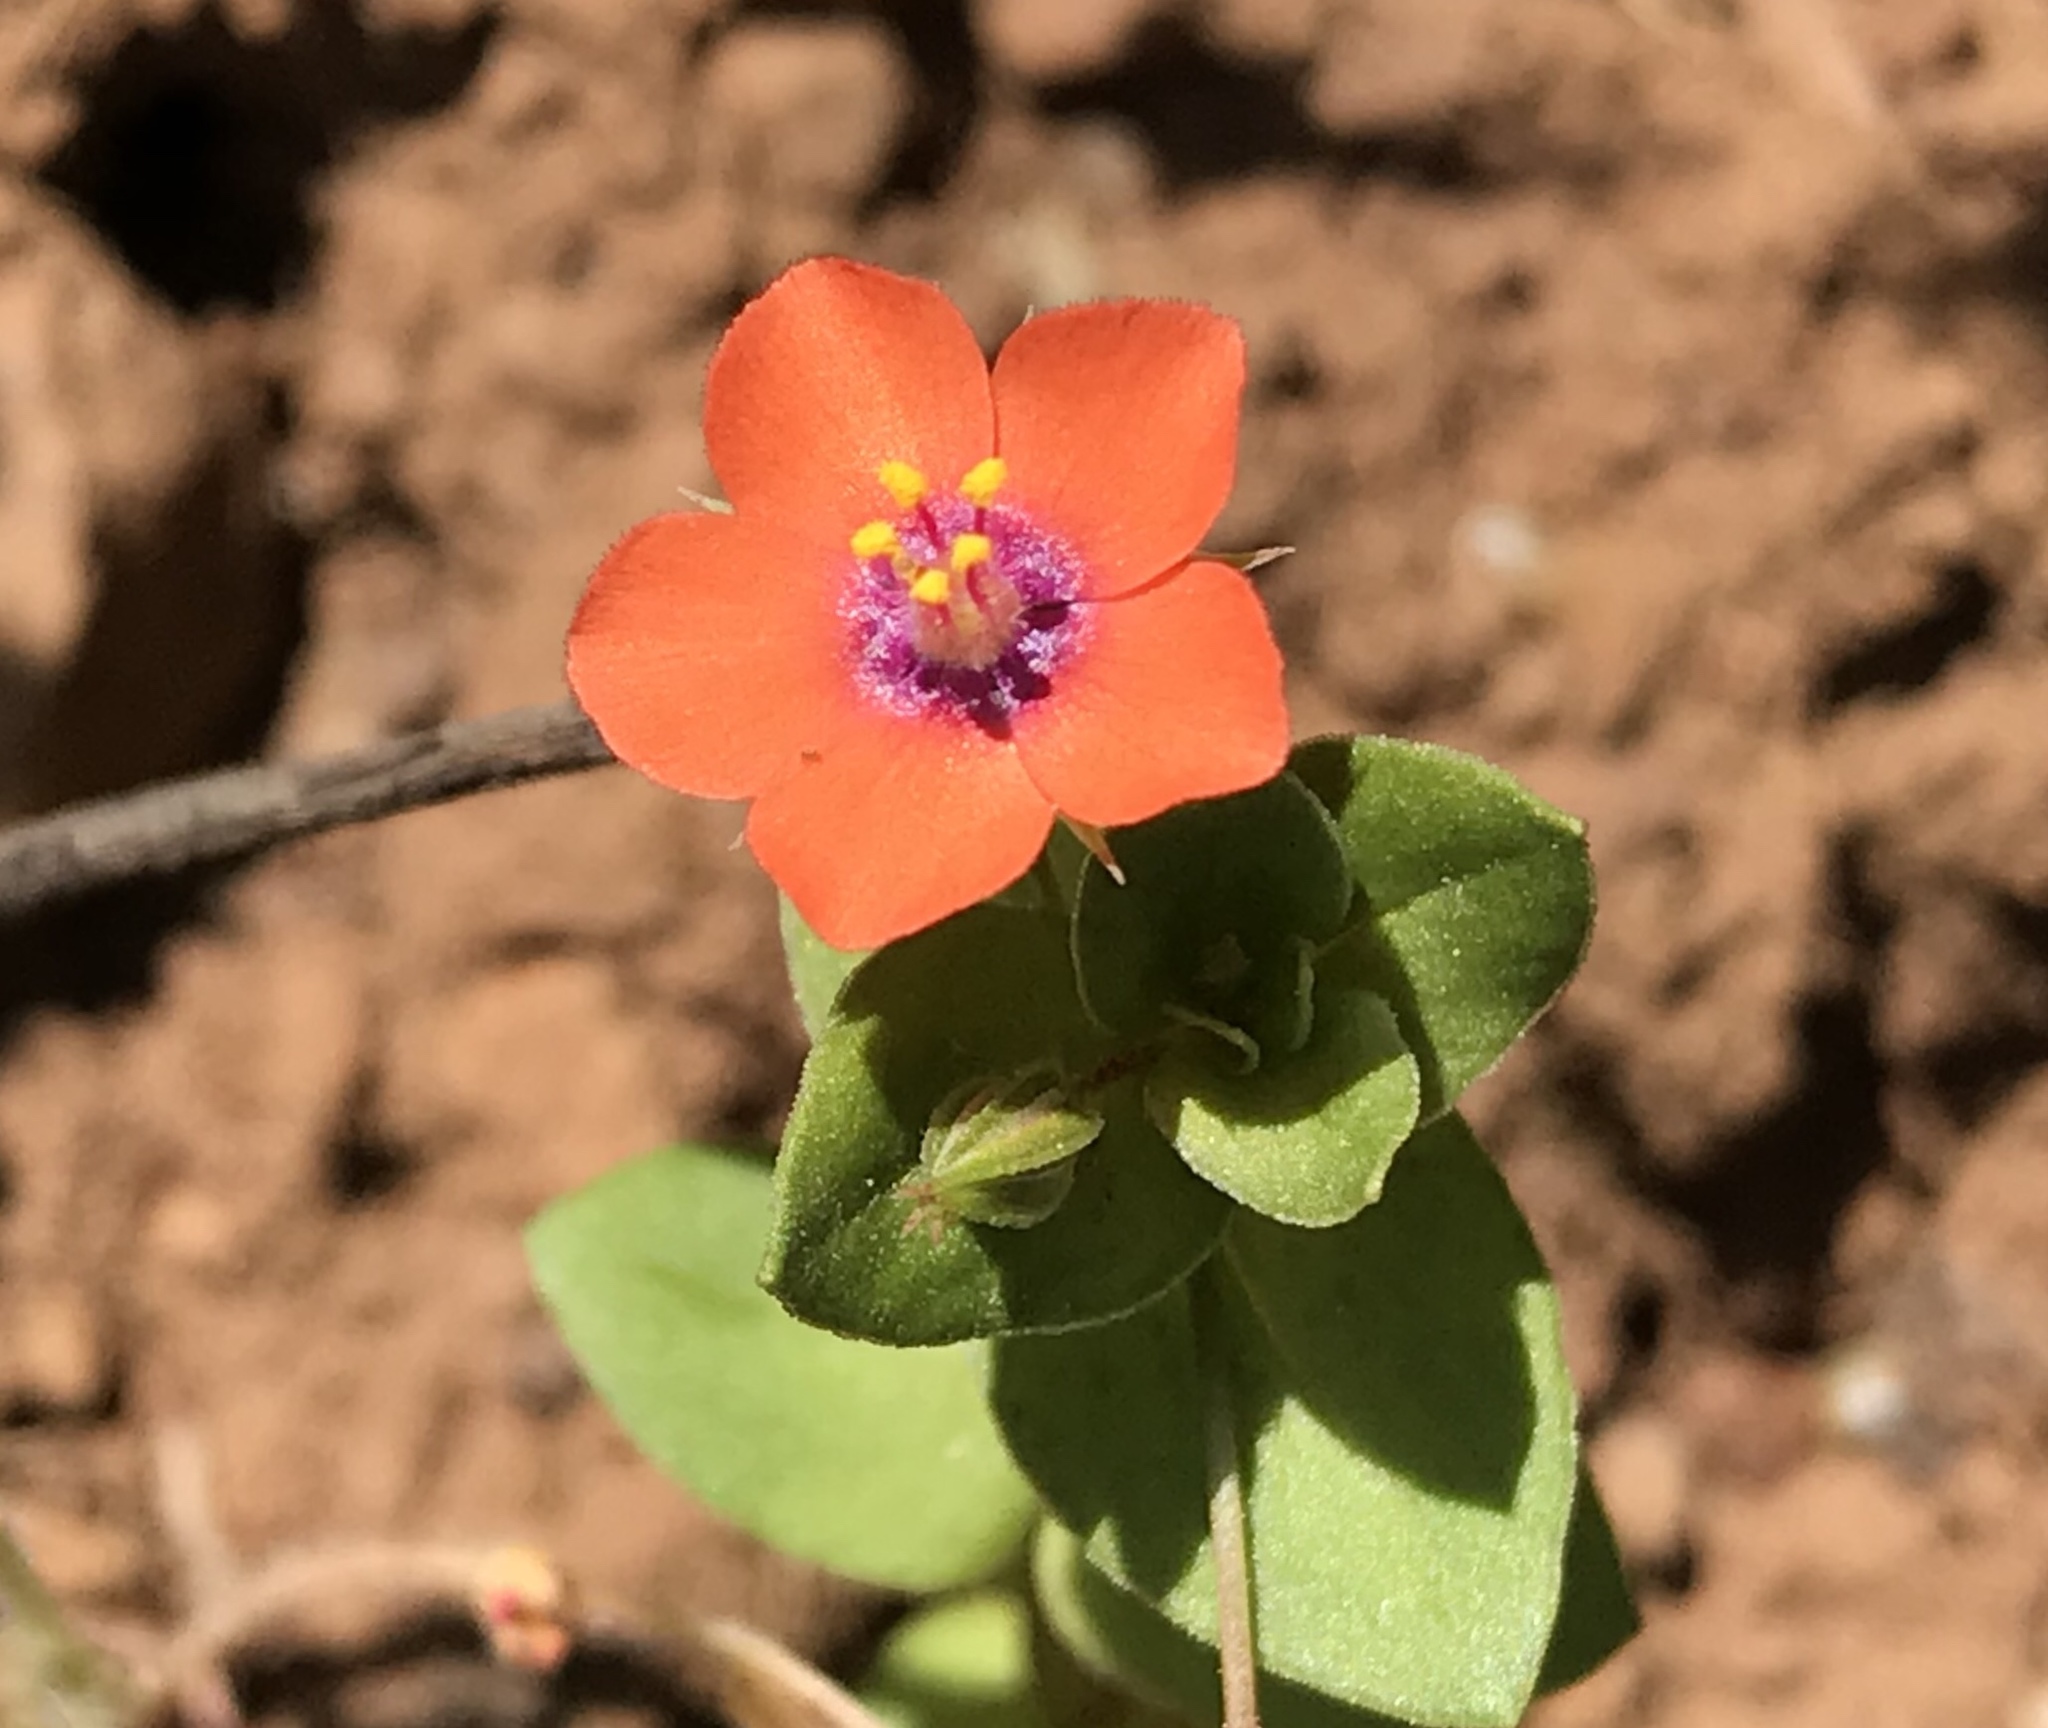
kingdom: Plantae
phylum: Tracheophyta
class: Magnoliopsida
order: Ericales
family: Primulaceae
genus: Lysimachia
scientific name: Lysimachia arvensis
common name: Scarlet pimpernel
